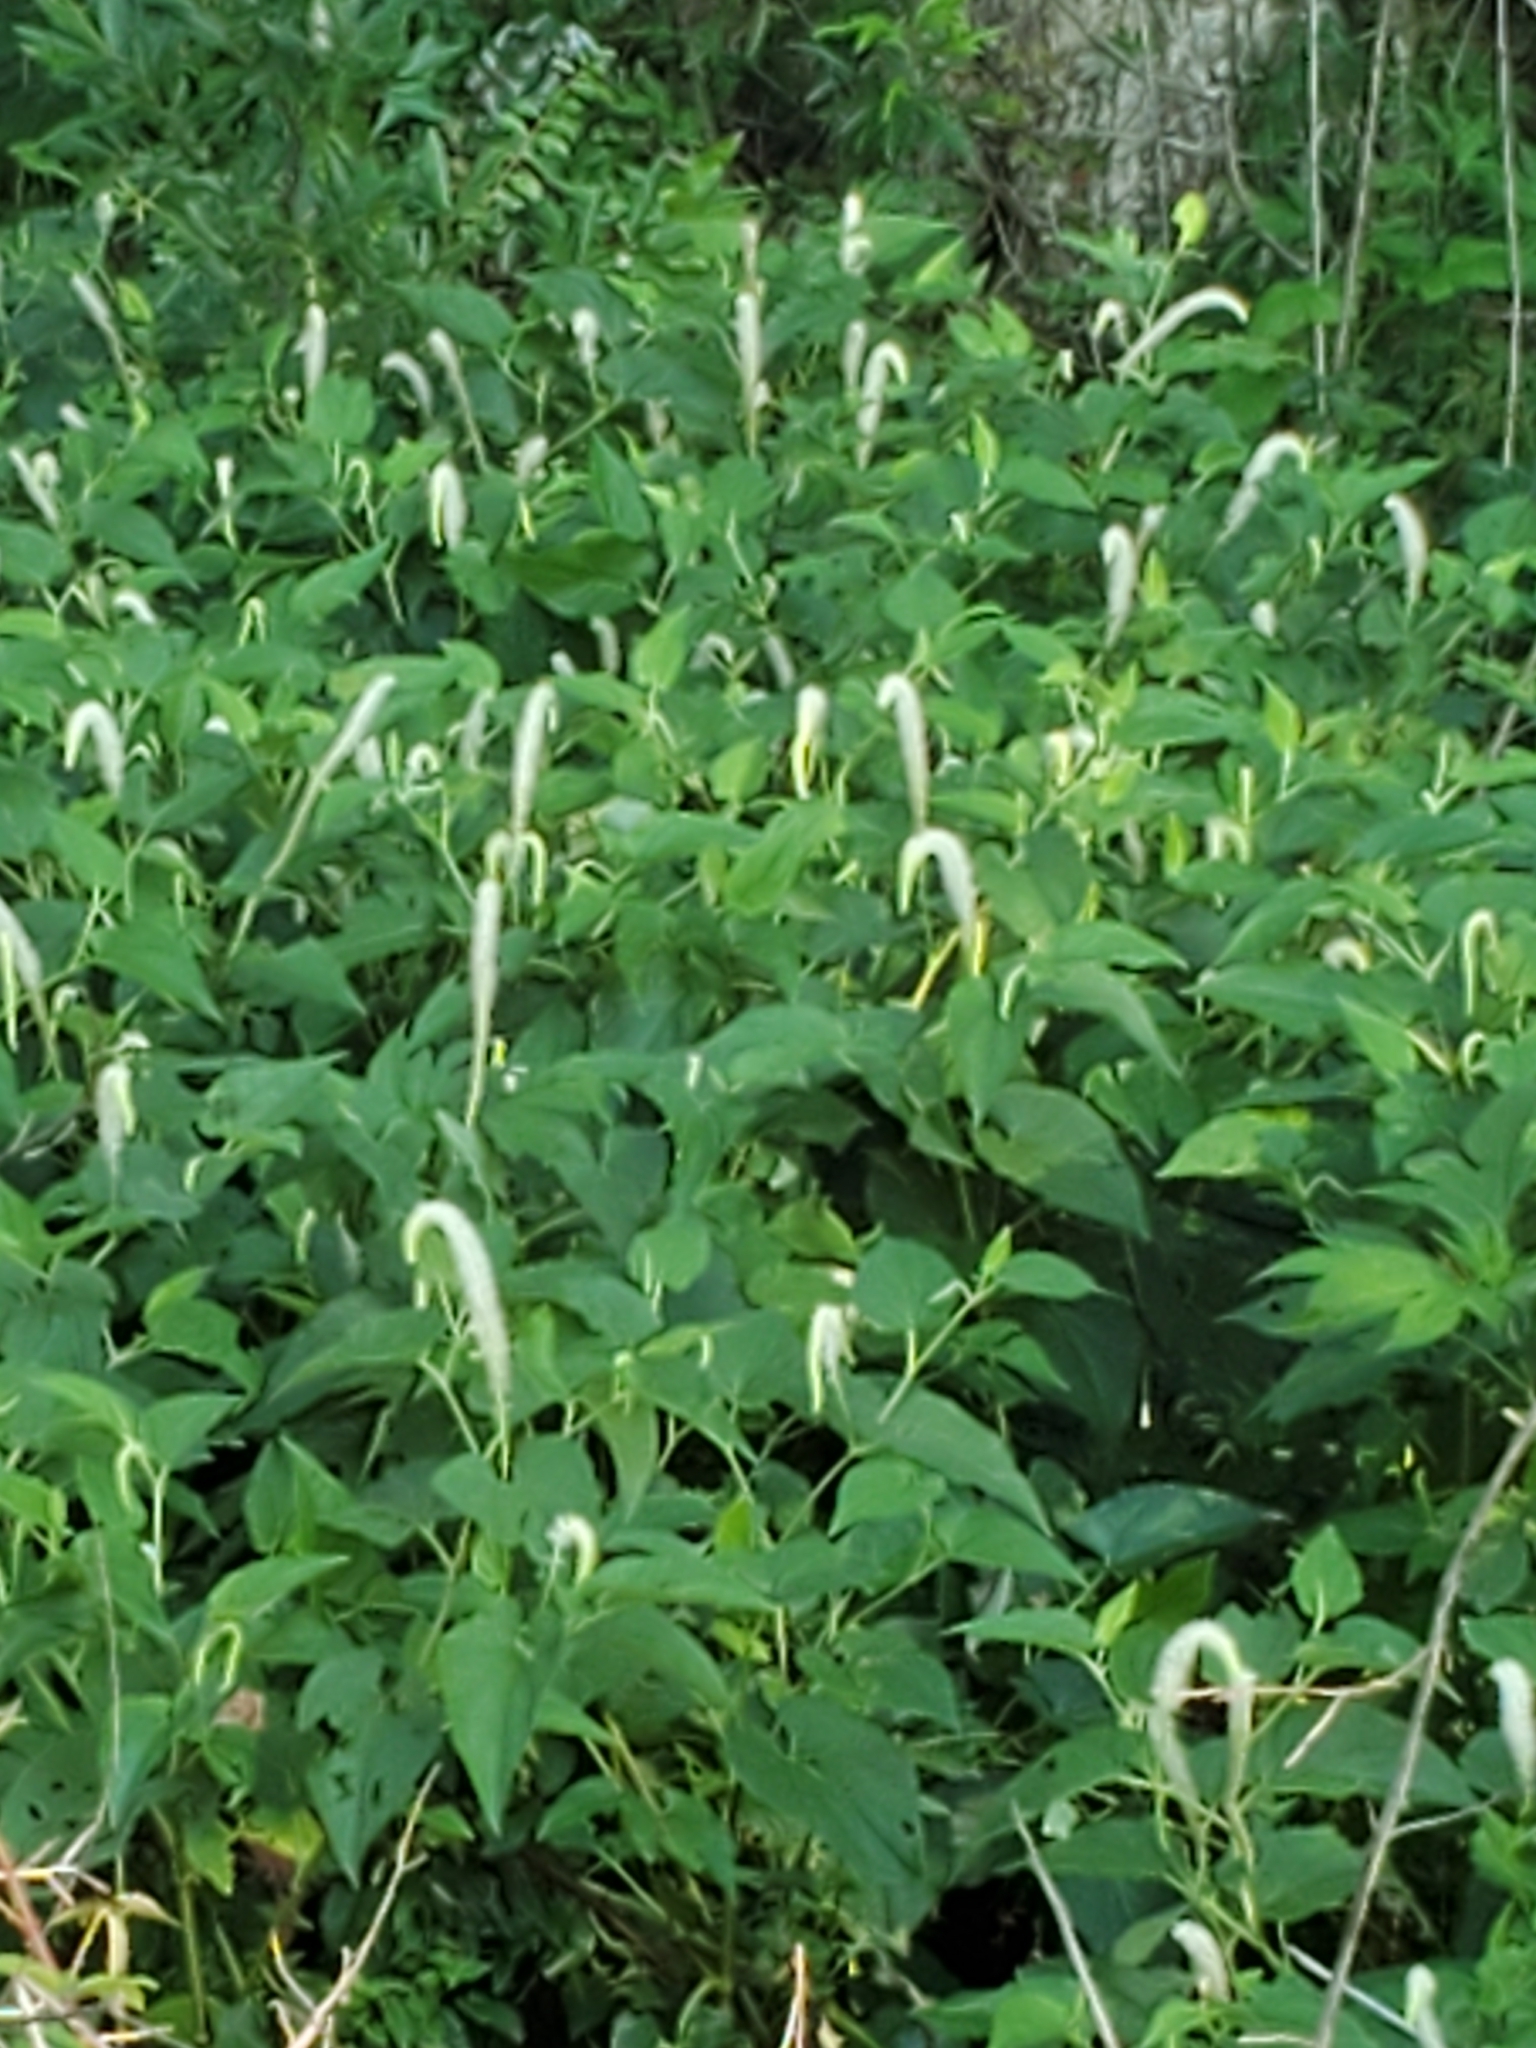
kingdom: Plantae
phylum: Tracheophyta
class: Magnoliopsida
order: Piperales
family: Saururaceae
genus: Saururus
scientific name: Saururus cernuus
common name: Lizard's-tail
